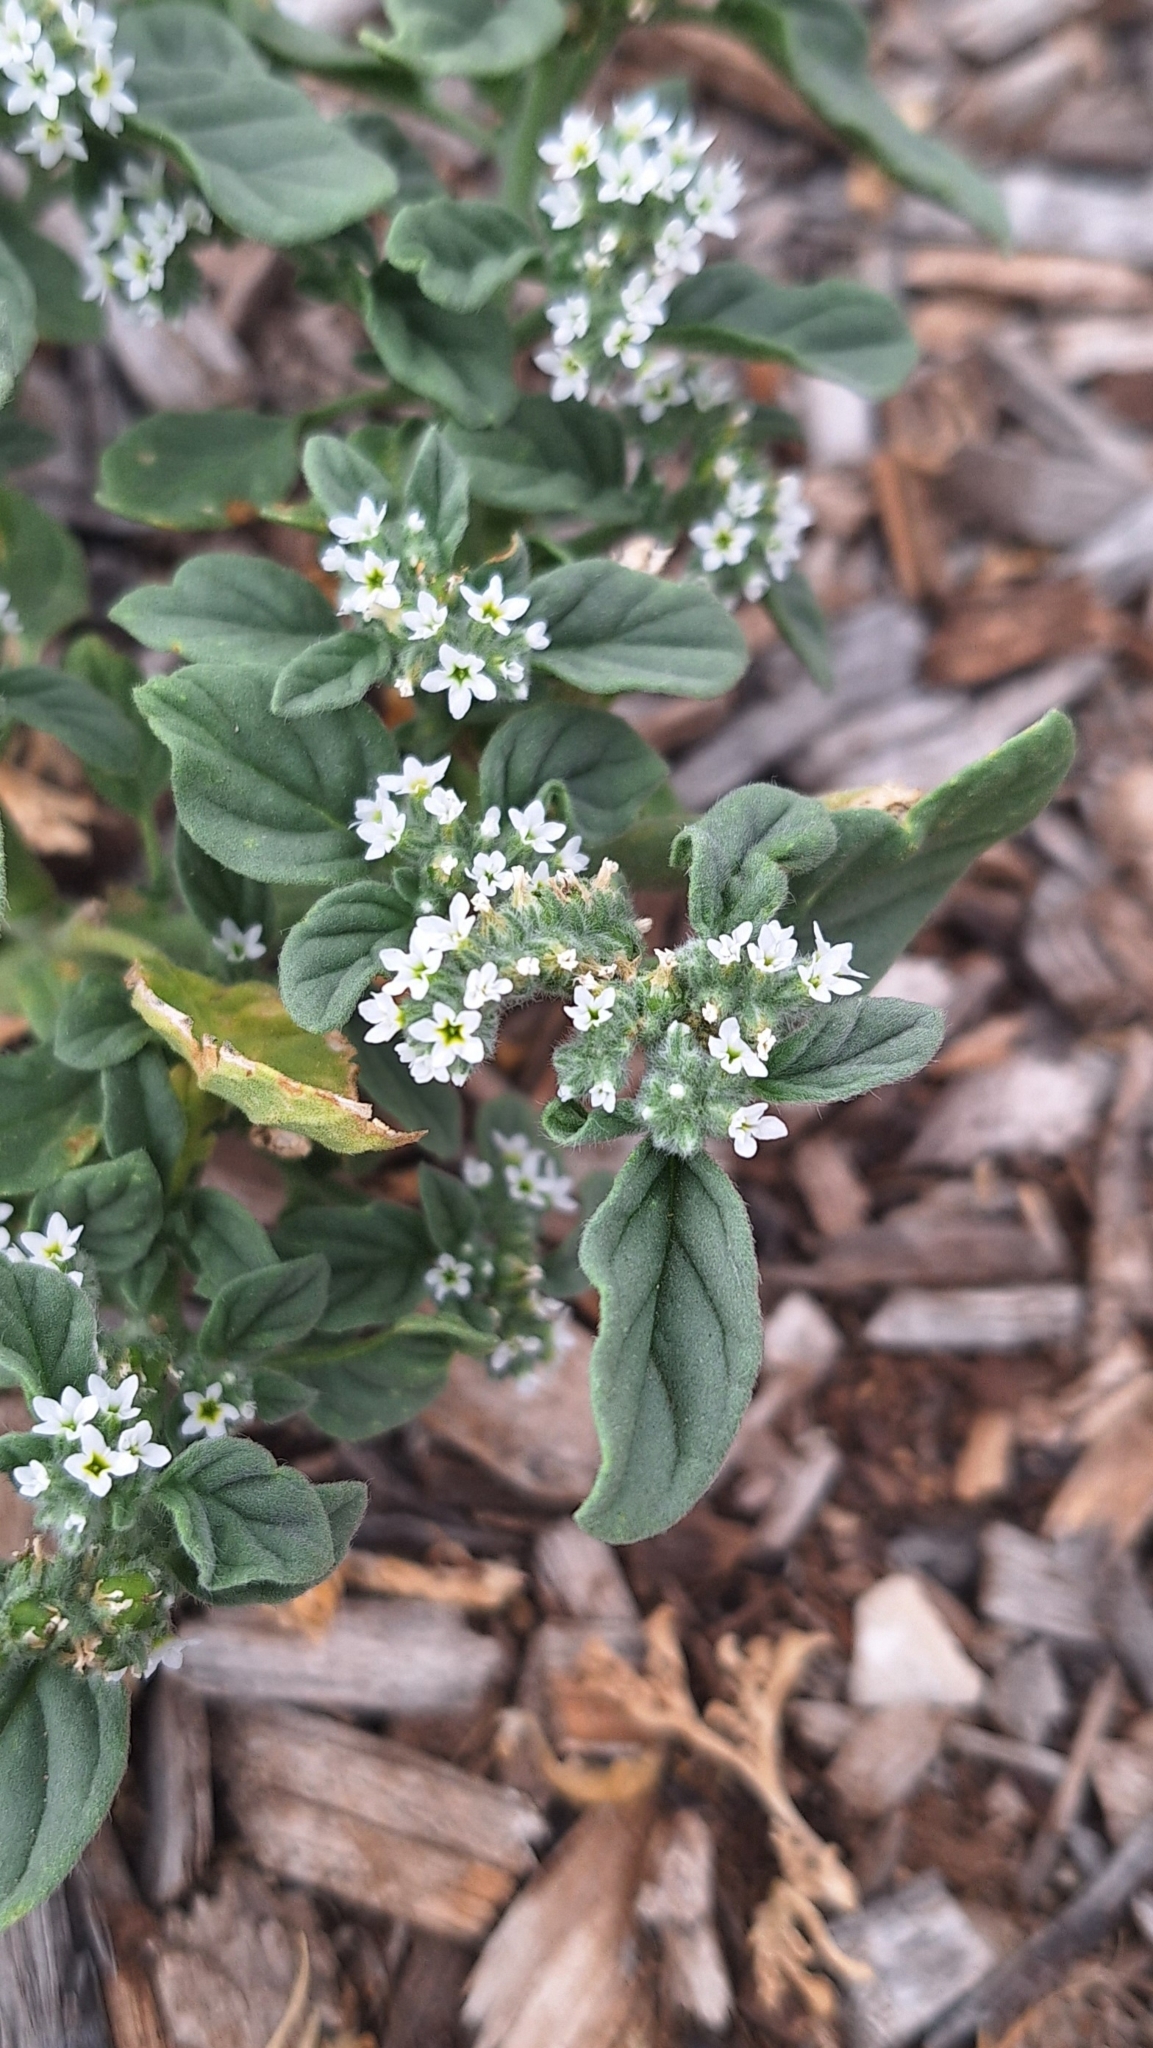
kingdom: Plantae
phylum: Tracheophyta
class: Magnoliopsida
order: Boraginales
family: Heliotropiaceae
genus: Heliotropium
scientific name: Heliotropium europaeum
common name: European heliotrope
